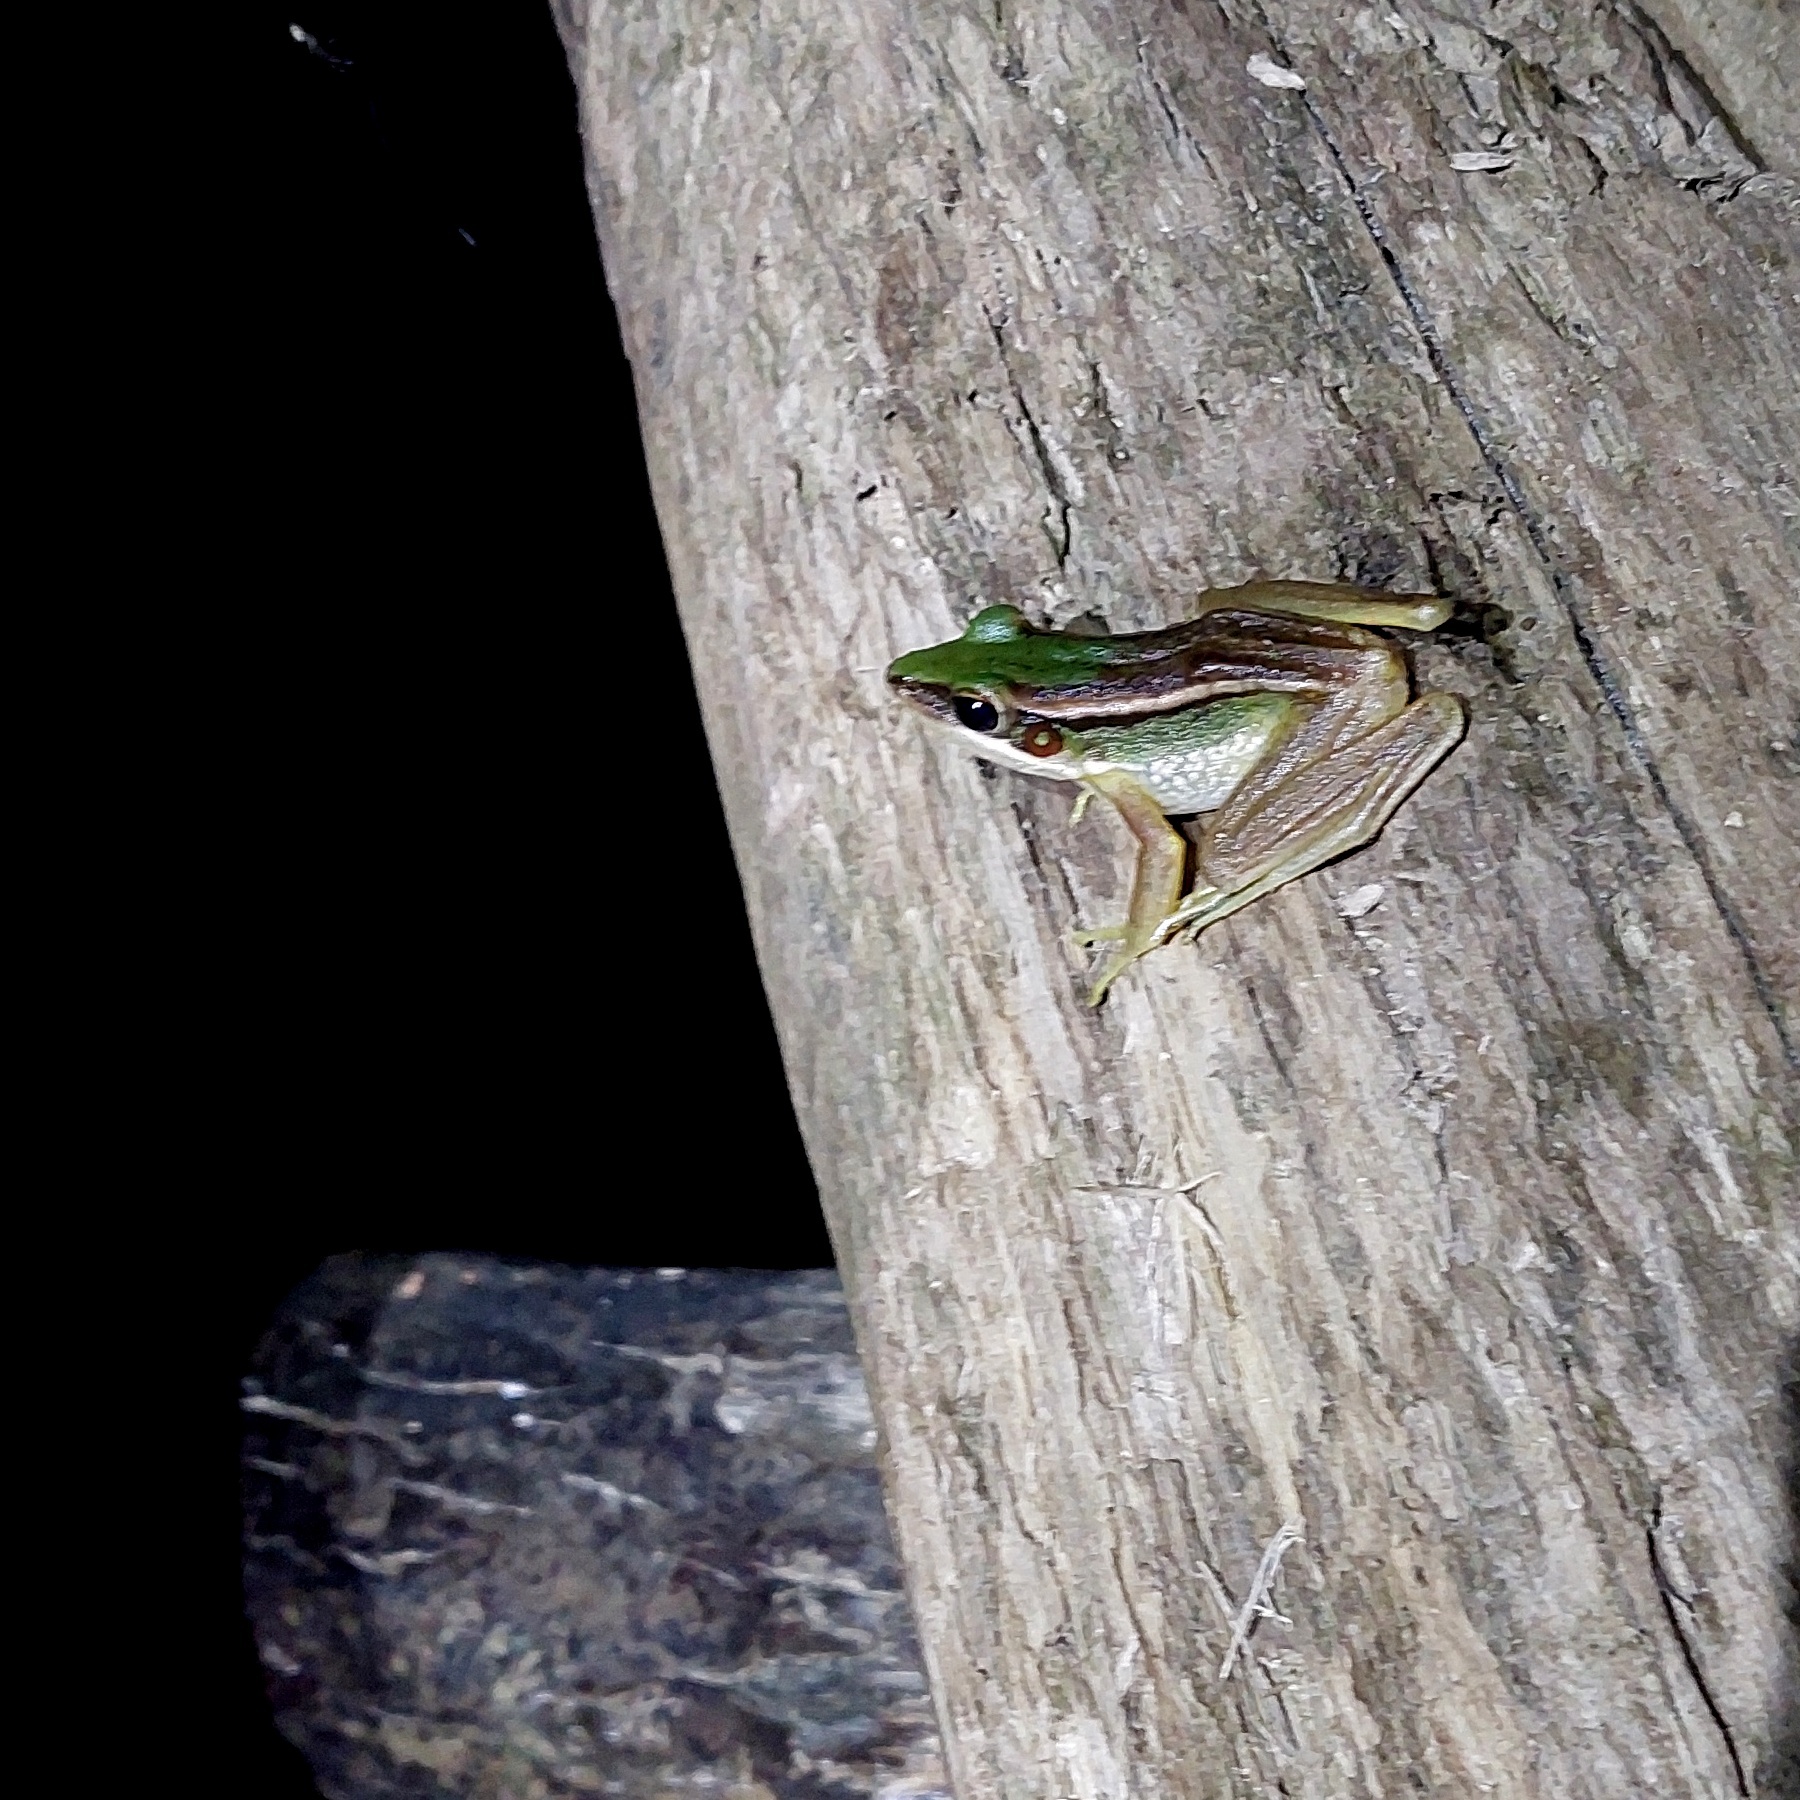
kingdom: Animalia
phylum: Chordata
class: Amphibia
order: Anura
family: Ranidae
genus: Hylarana
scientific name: Hylarana erythraea
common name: Common green frog/green paddy frog/leaf frog
